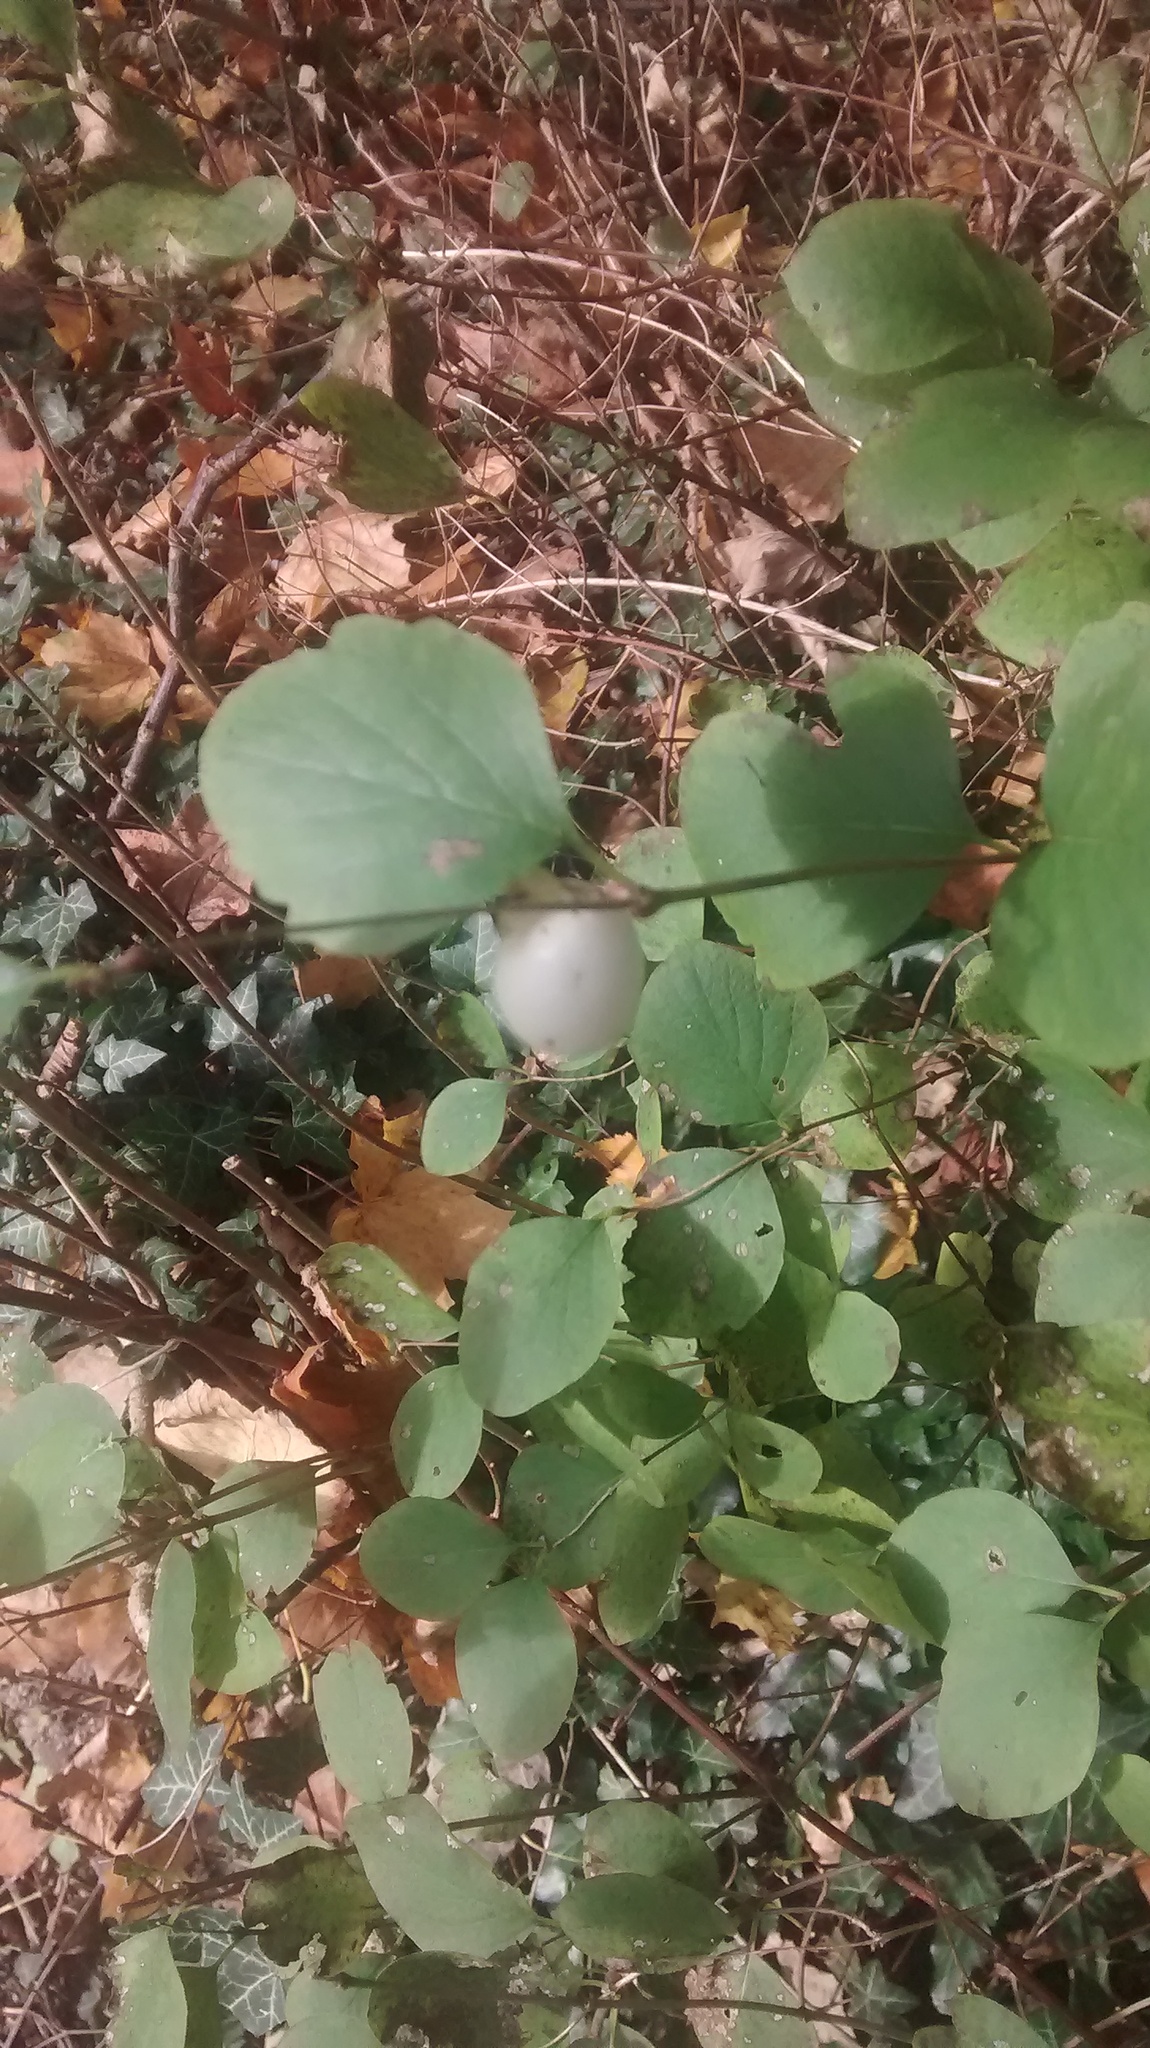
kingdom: Plantae
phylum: Tracheophyta
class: Magnoliopsida
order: Dipsacales
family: Caprifoliaceae
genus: Symphoricarpos
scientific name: Symphoricarpos albus
